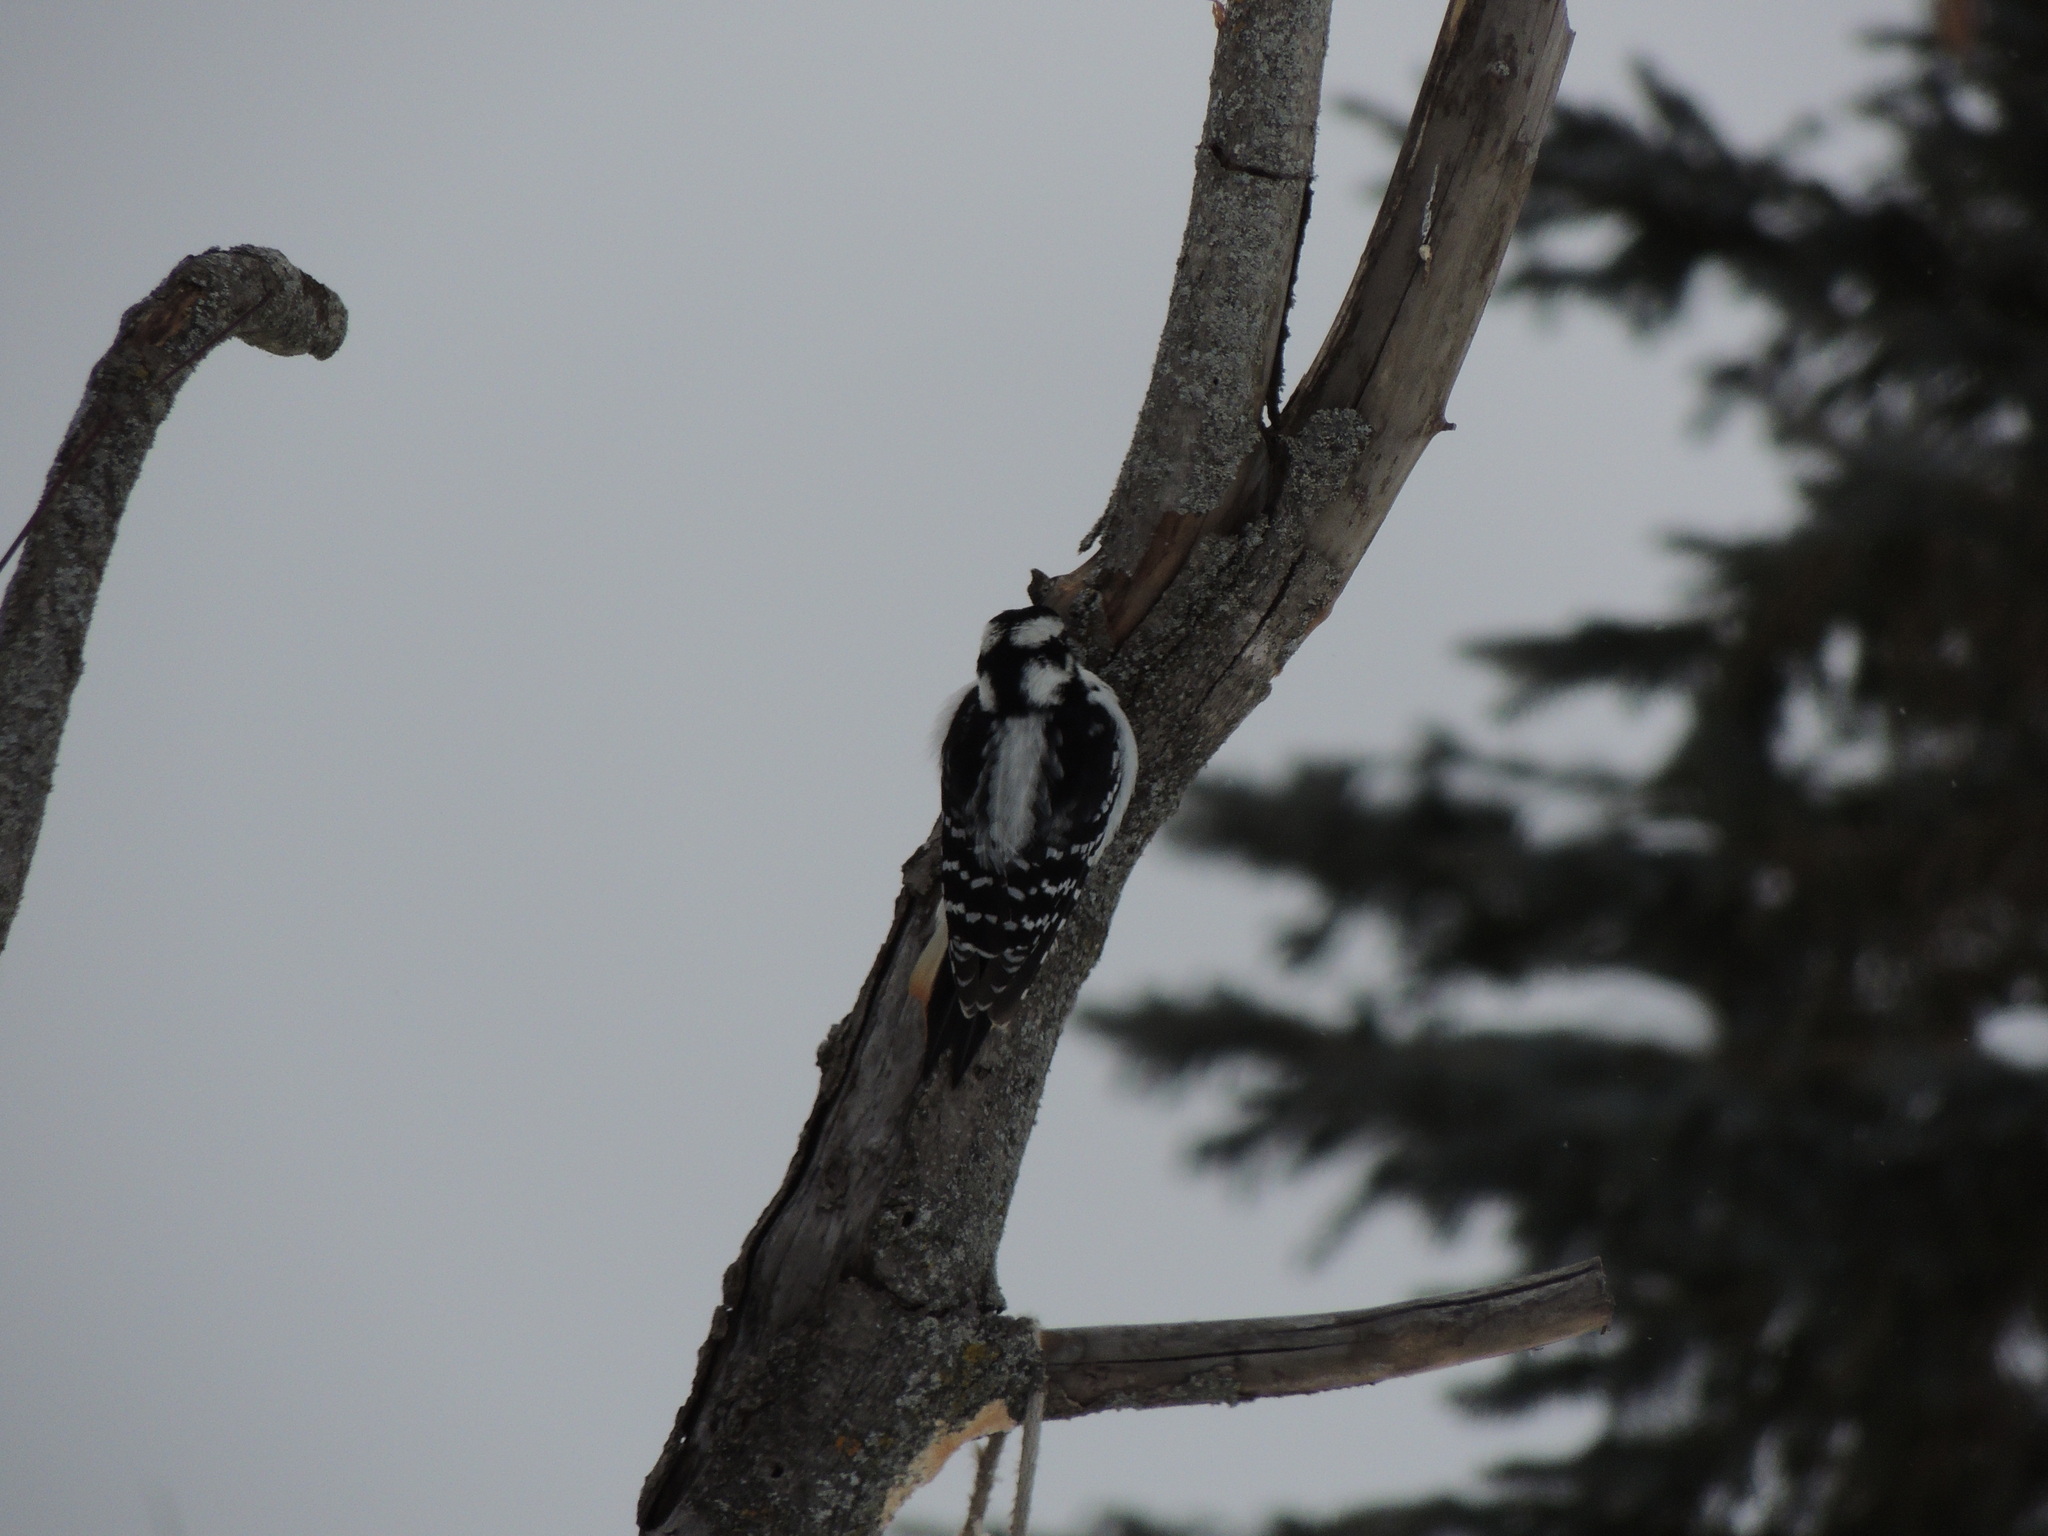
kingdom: Animalia
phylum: Chordata
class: Aves
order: Piciformes
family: Picidae
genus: Leuconotopicus
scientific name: Leuconotopicus villosus
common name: Hairy woodpecker
